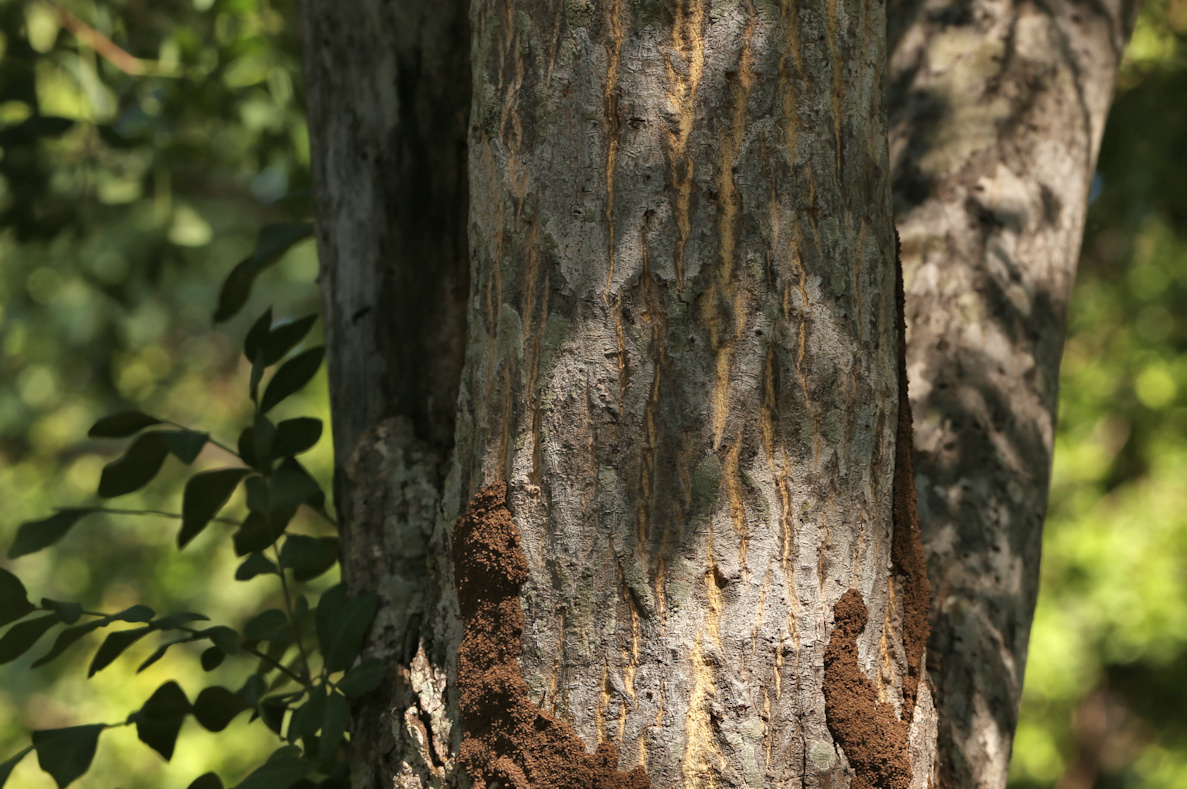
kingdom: Plantae
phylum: Tracheophyta
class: Magnoliopsida
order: Sapindales
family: Rutaceae
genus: Ptaeroxylon
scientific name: Ptaeroxylon obliquum
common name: Sneezewood
